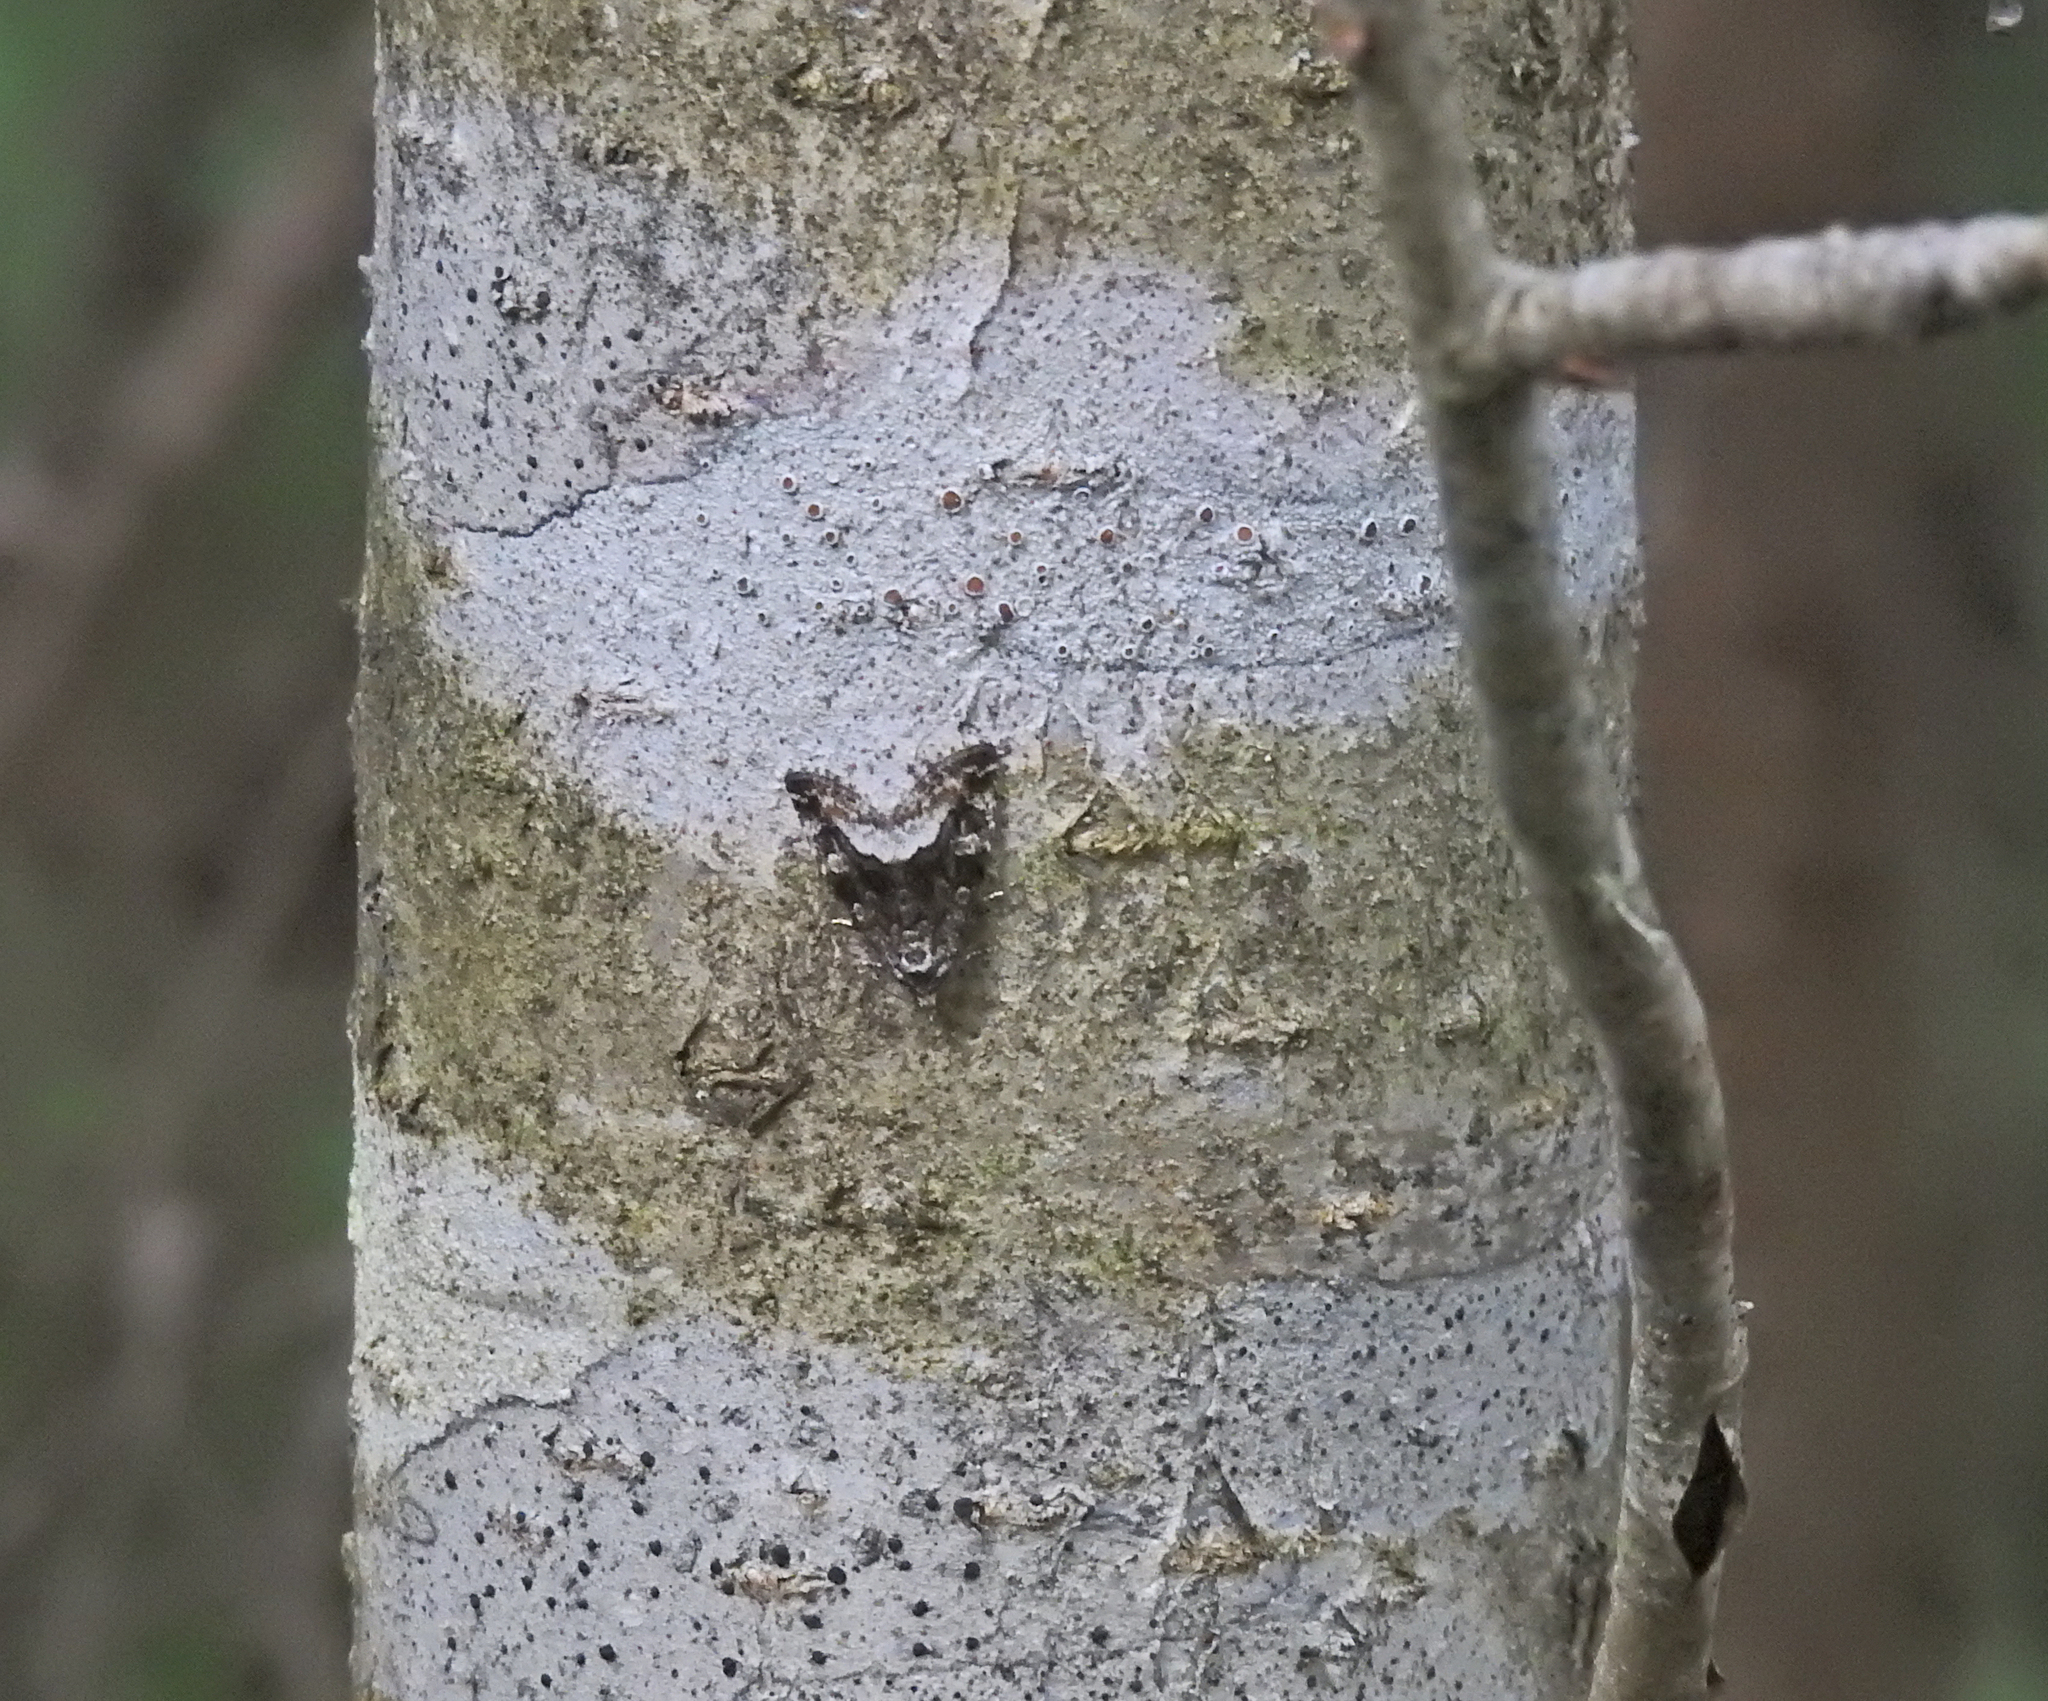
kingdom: Animalia
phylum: Arthropoda
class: Insecta
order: Lepidoptera
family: Noctuidae
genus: Deltote
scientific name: Deltote pygarga
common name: Marbled white spot
